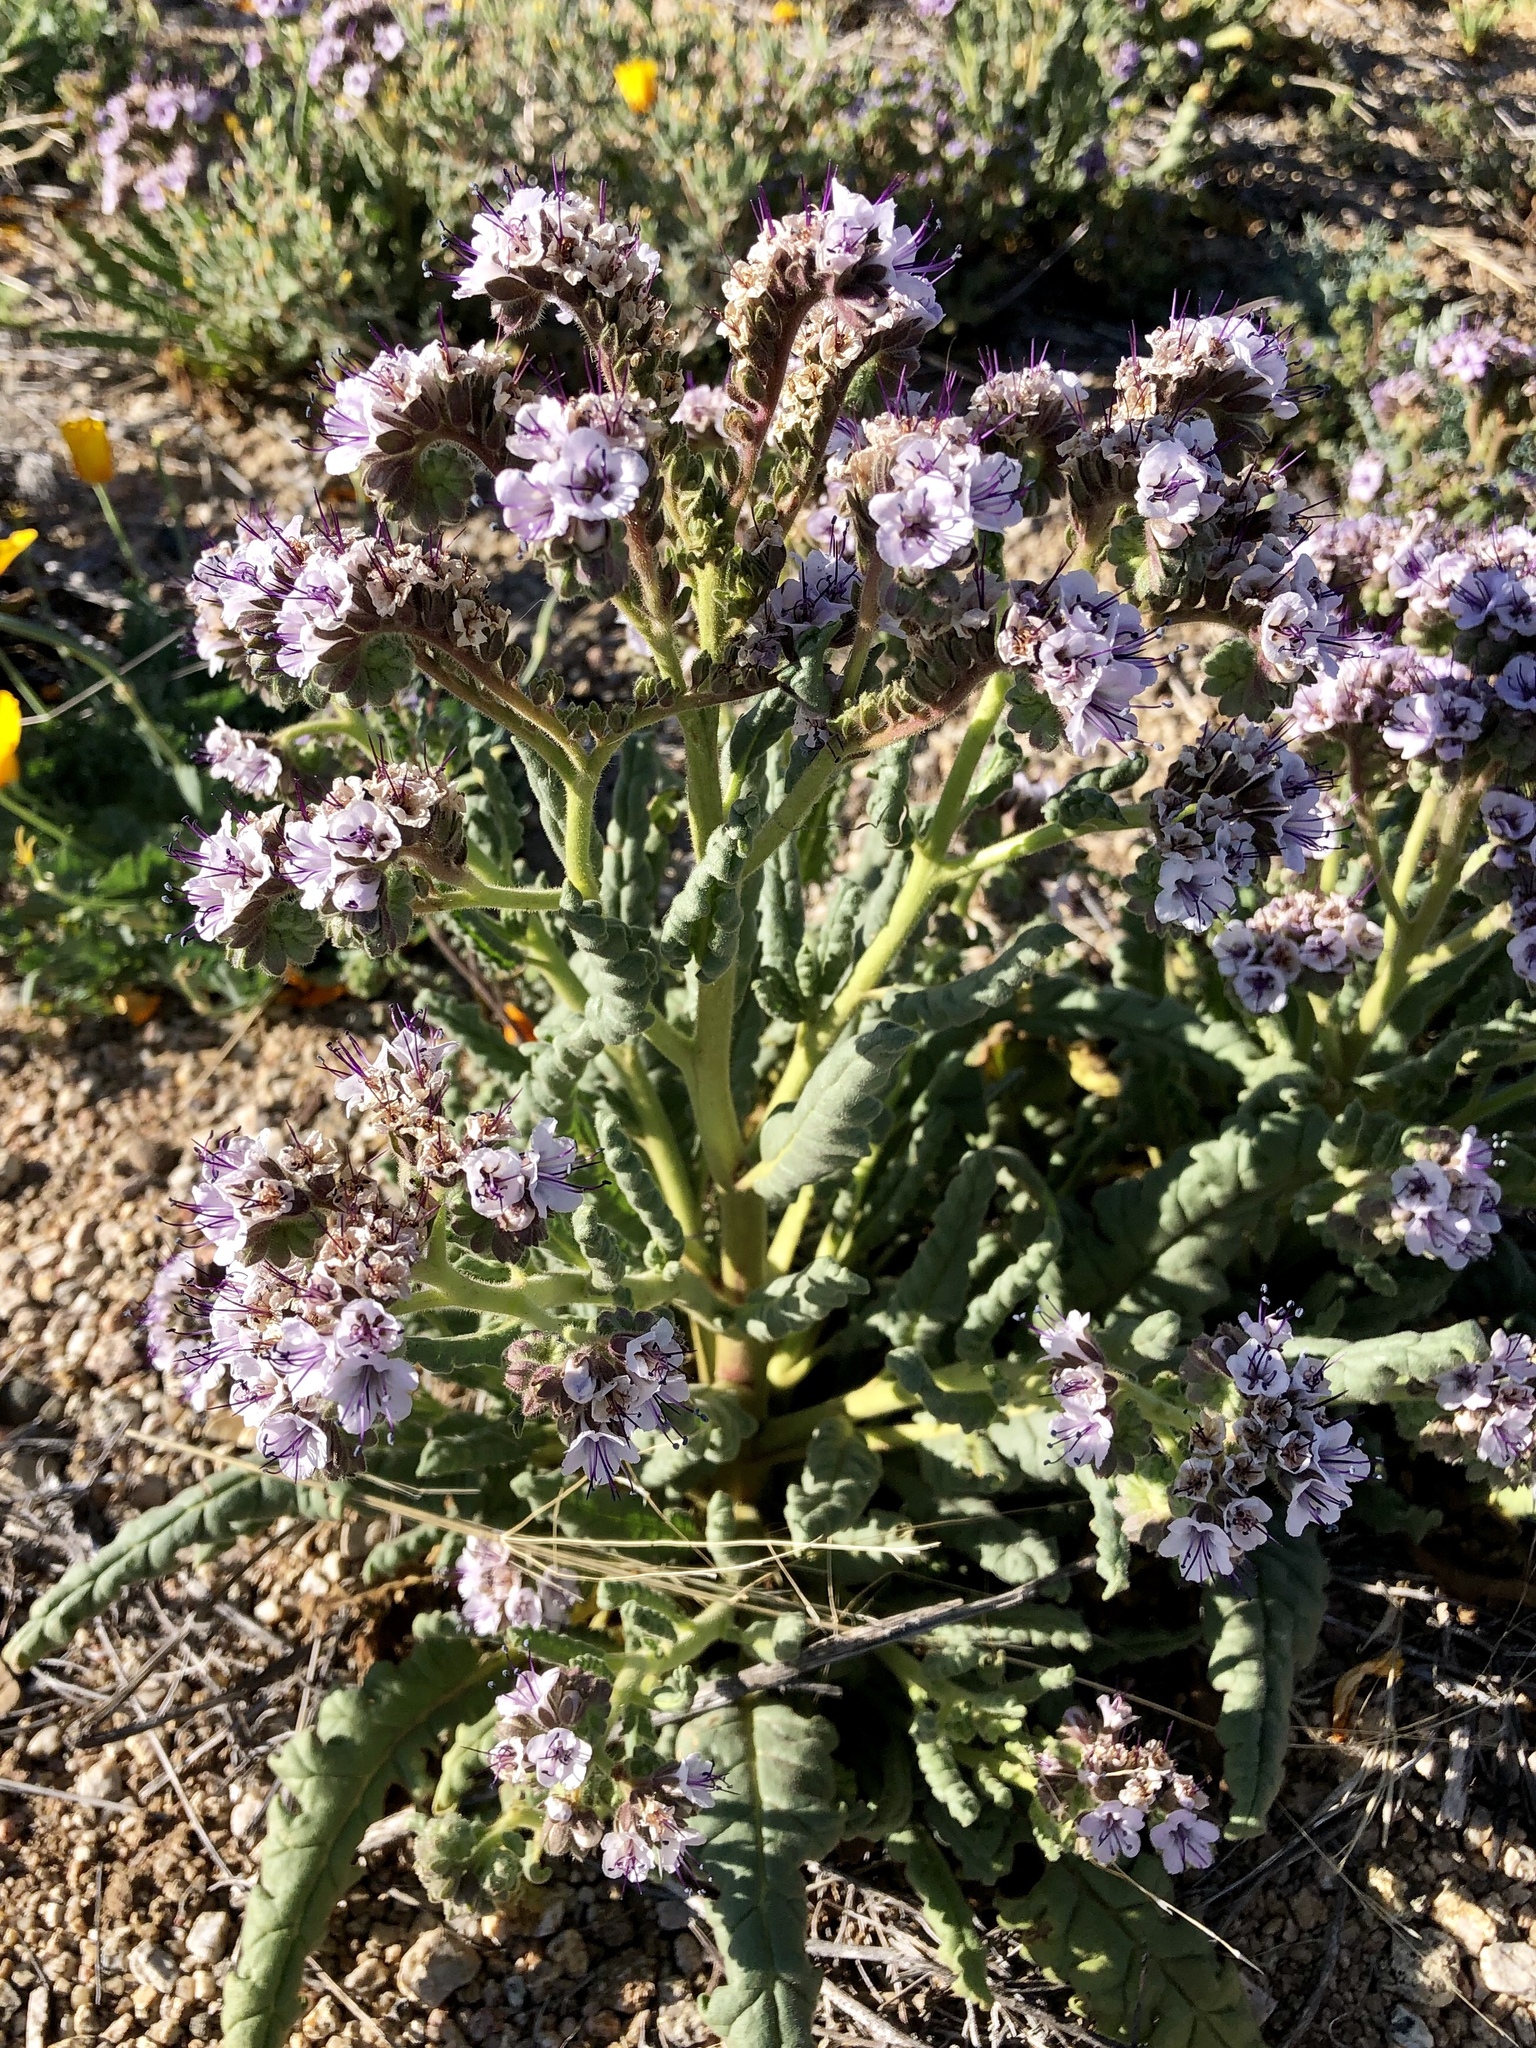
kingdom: Plantae
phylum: Tracheophyta
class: Magnoliopsida
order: Boraginales
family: Hydrophyllaceae
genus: Phacelia
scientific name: Phacelia integrifolia
